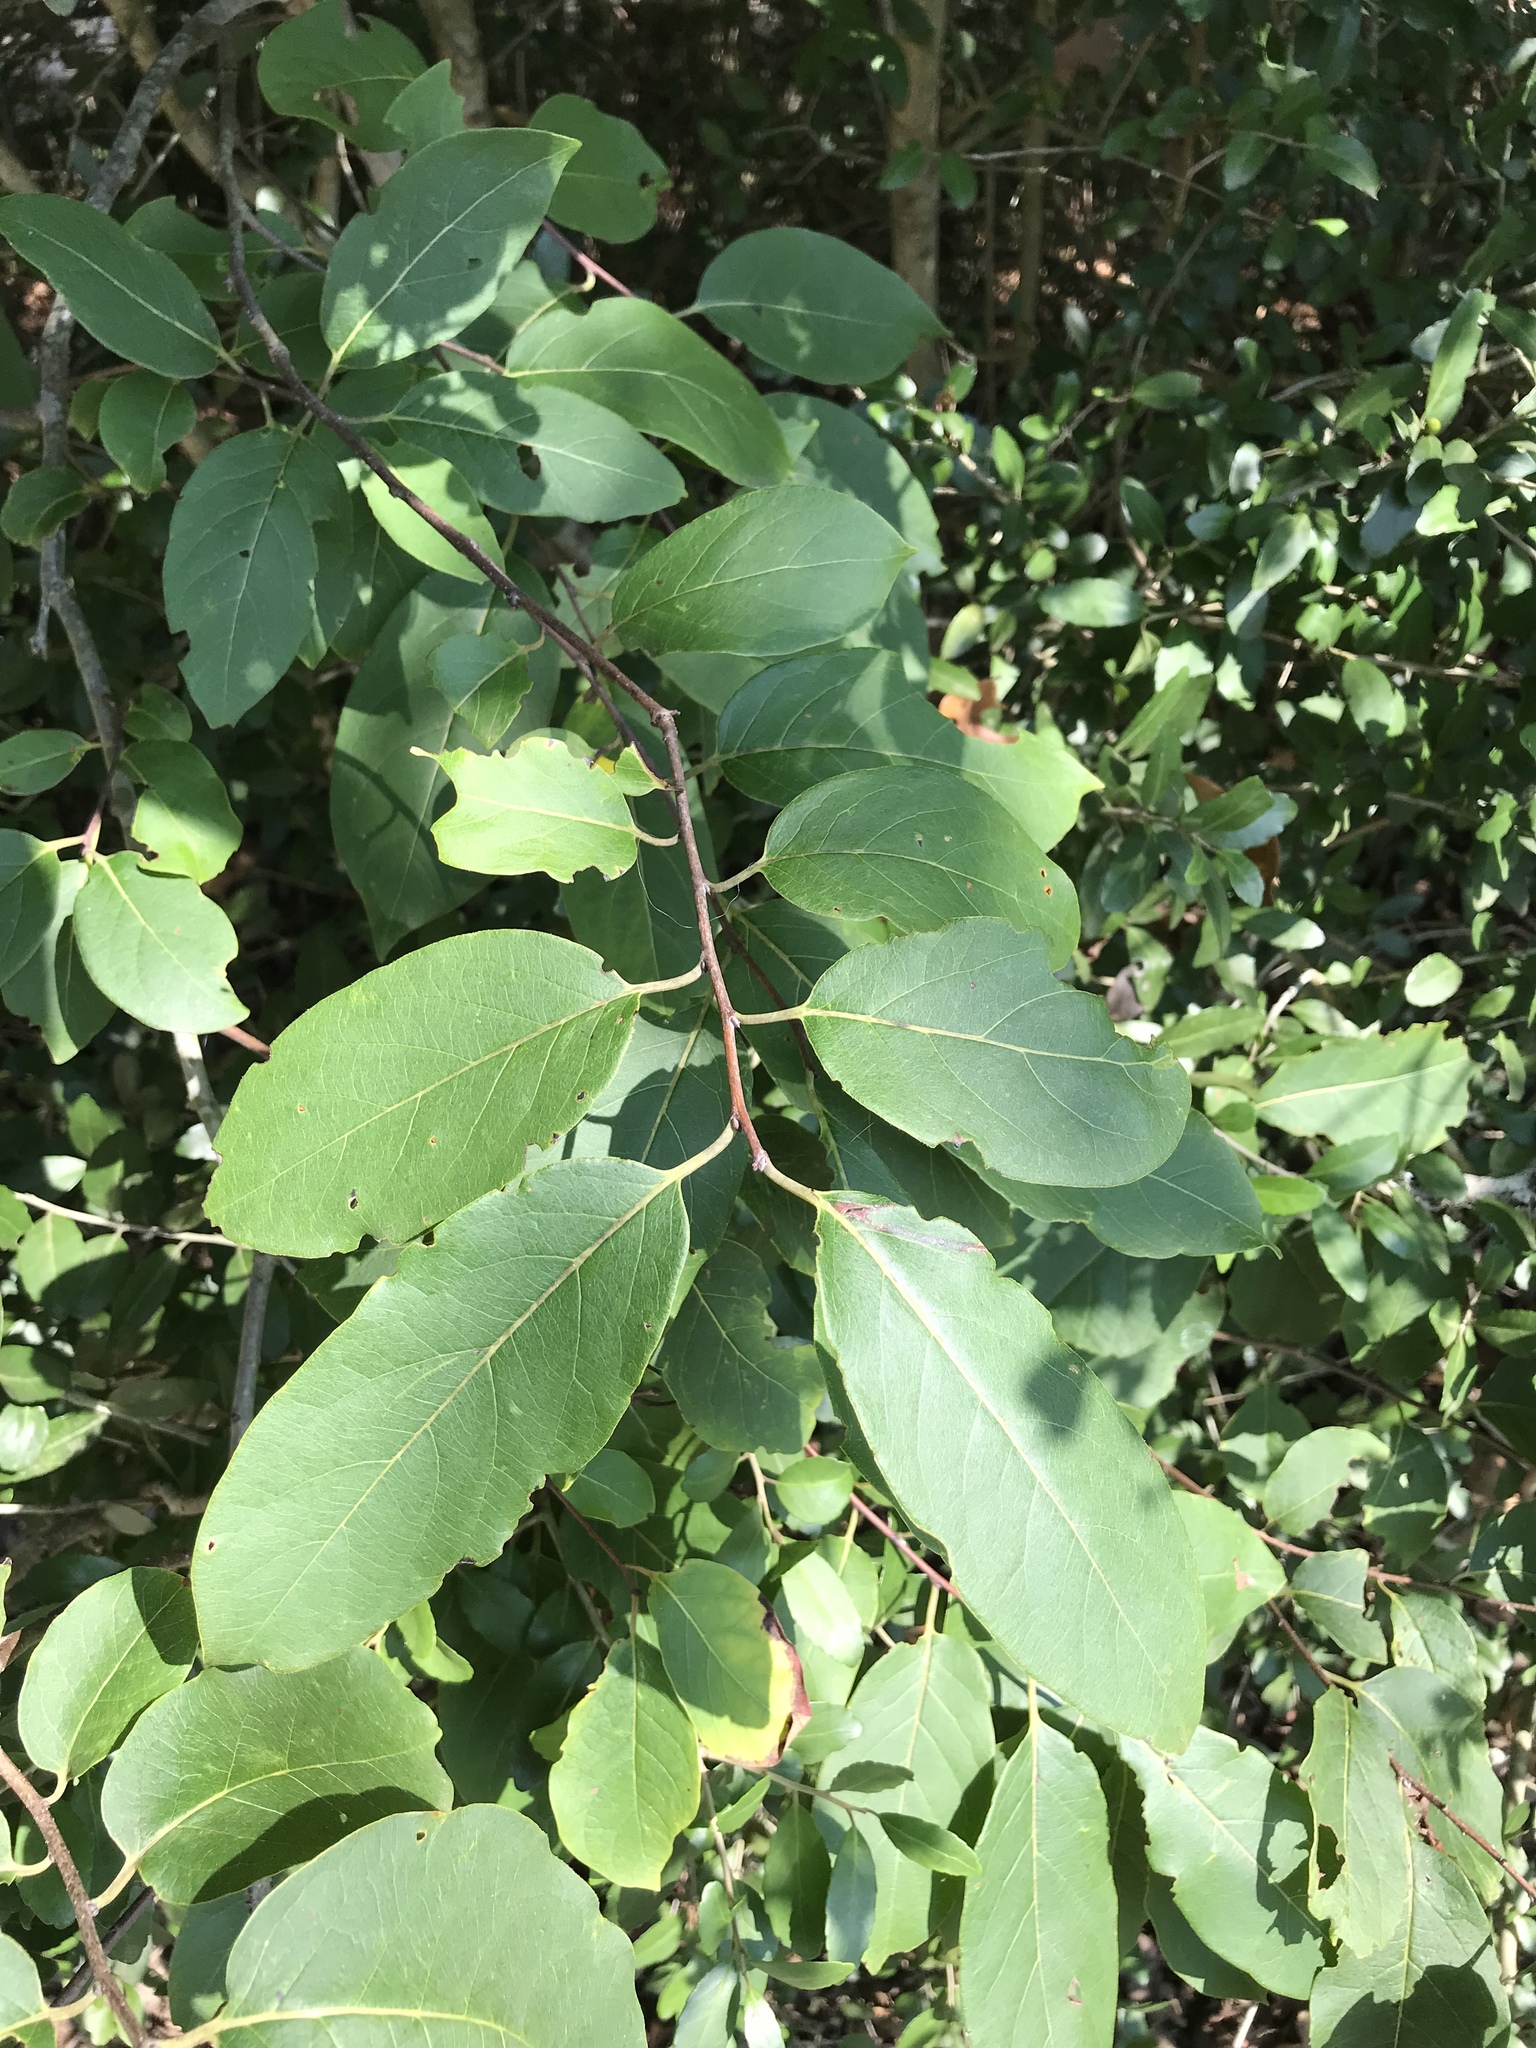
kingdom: Plantae
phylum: Tracheophyta
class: Magnoliopsida
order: Ericales
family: Ebenaceae
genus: Diospyros
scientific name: Diospyros virginiana
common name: Persimmon
